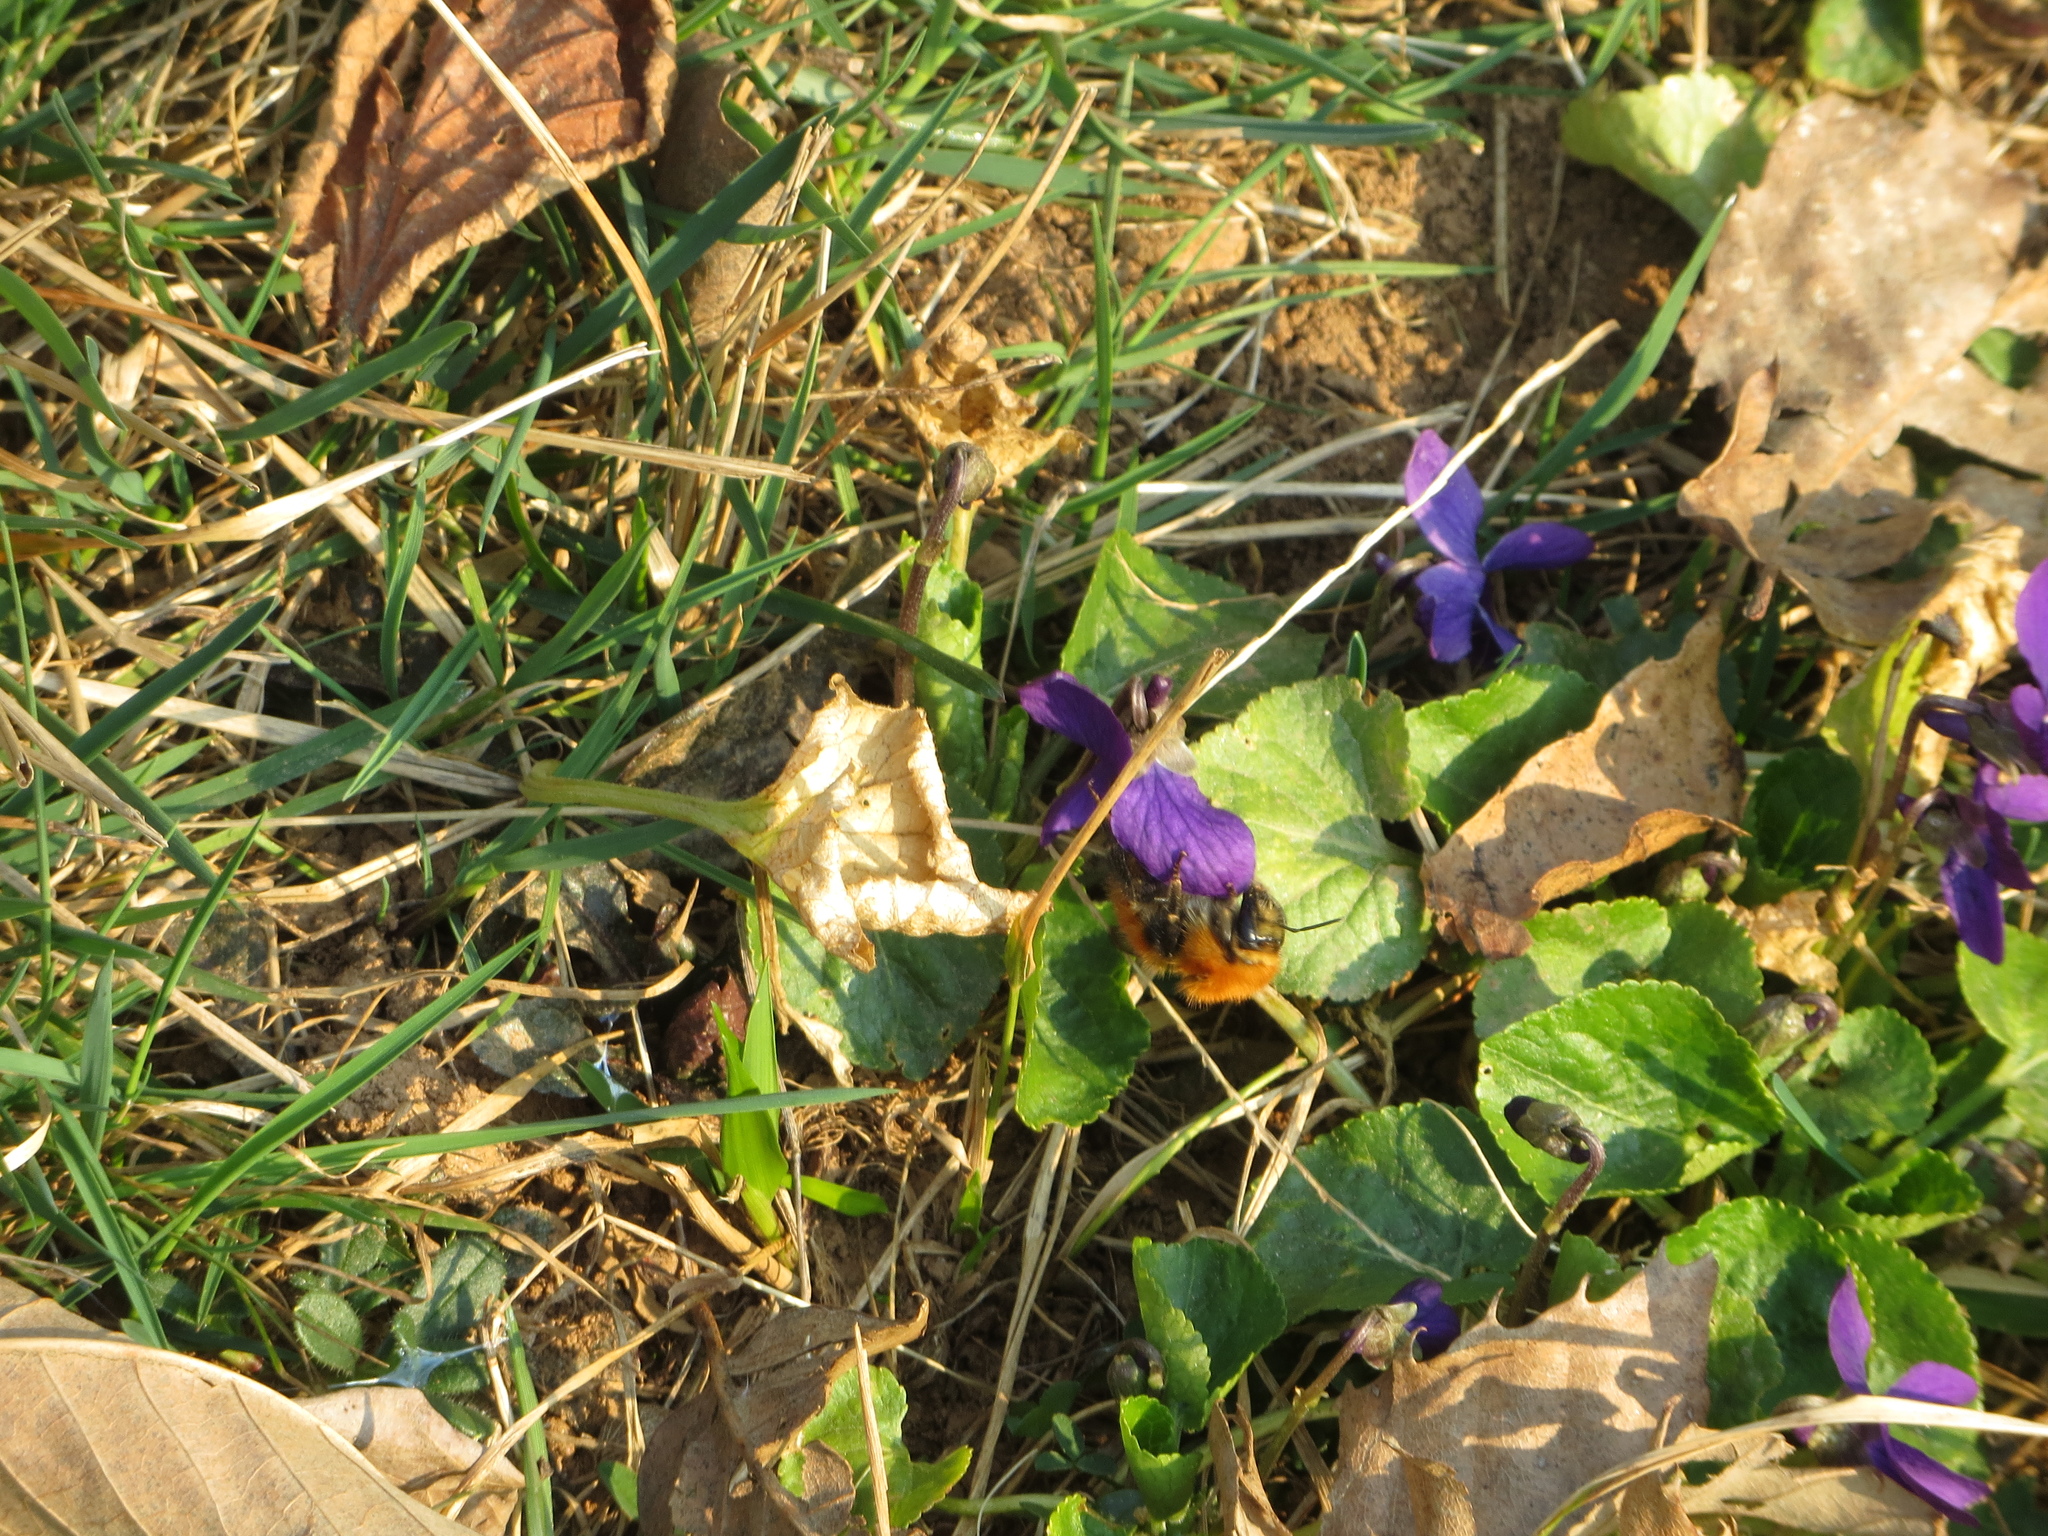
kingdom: Animalia
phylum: Arthropoda
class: Insecta
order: Hymenoptera
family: Apidae
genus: Bombus
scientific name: Bombus pascuorum
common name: Common carder bee
